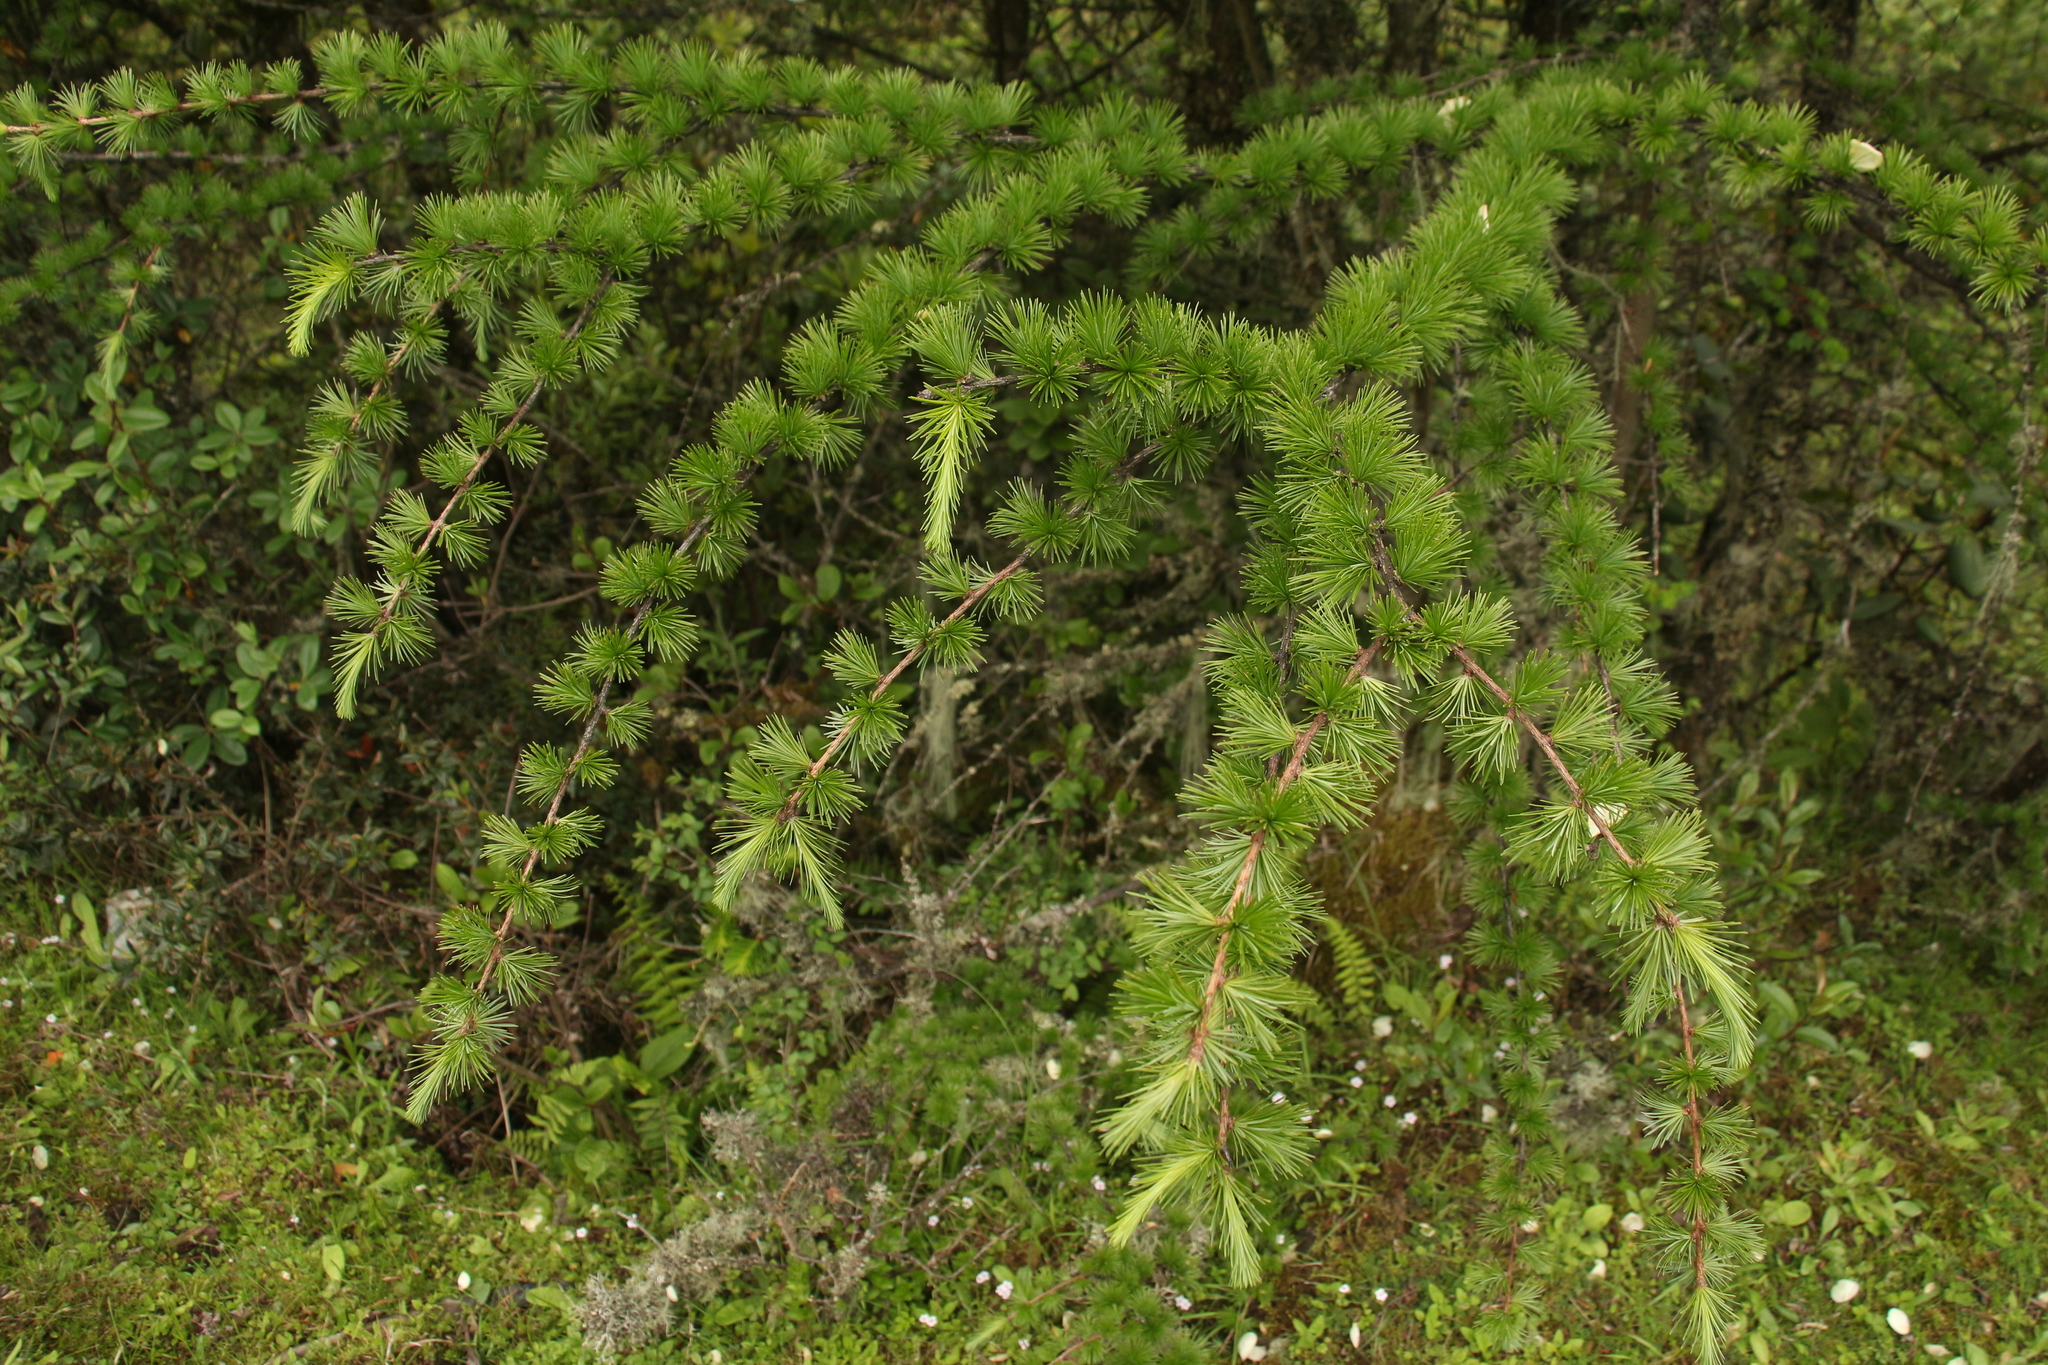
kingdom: Plantae
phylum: Tracheophyta
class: Pinopsida
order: Pinales
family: Pinaceae
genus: Larix
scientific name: Larix griffithii
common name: Sikkim larch
